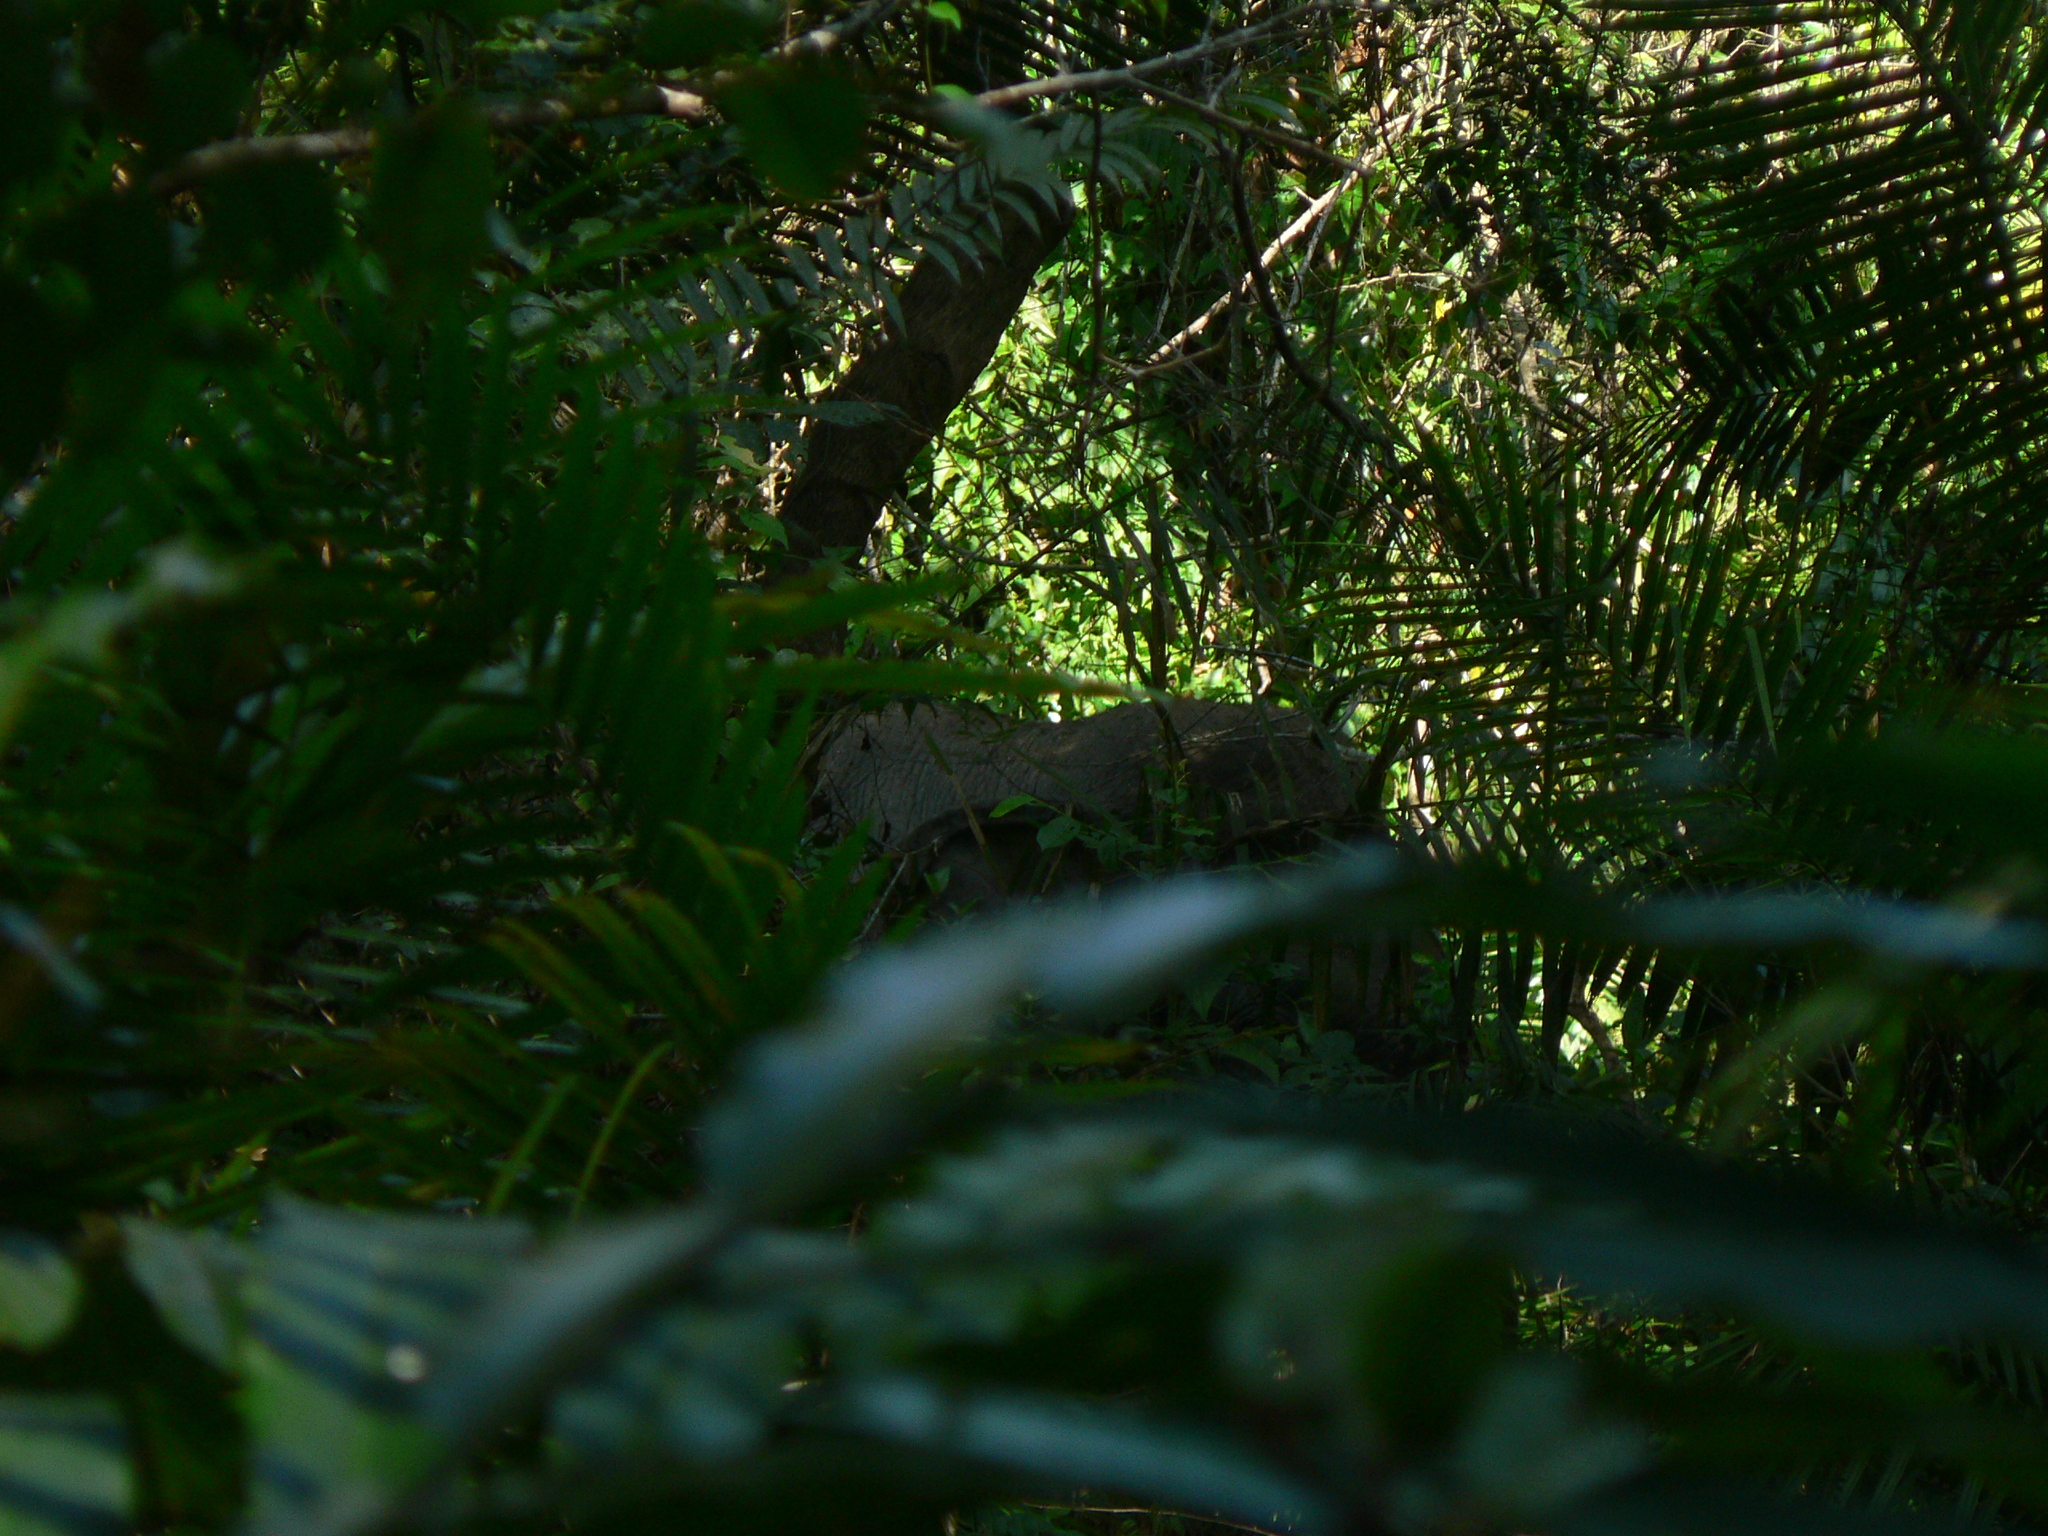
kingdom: Animalia
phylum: Chordata
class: Mammalia
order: Proboscidea
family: Elephantidae
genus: Elephas
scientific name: Elephas maximus
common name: Asian elephant
